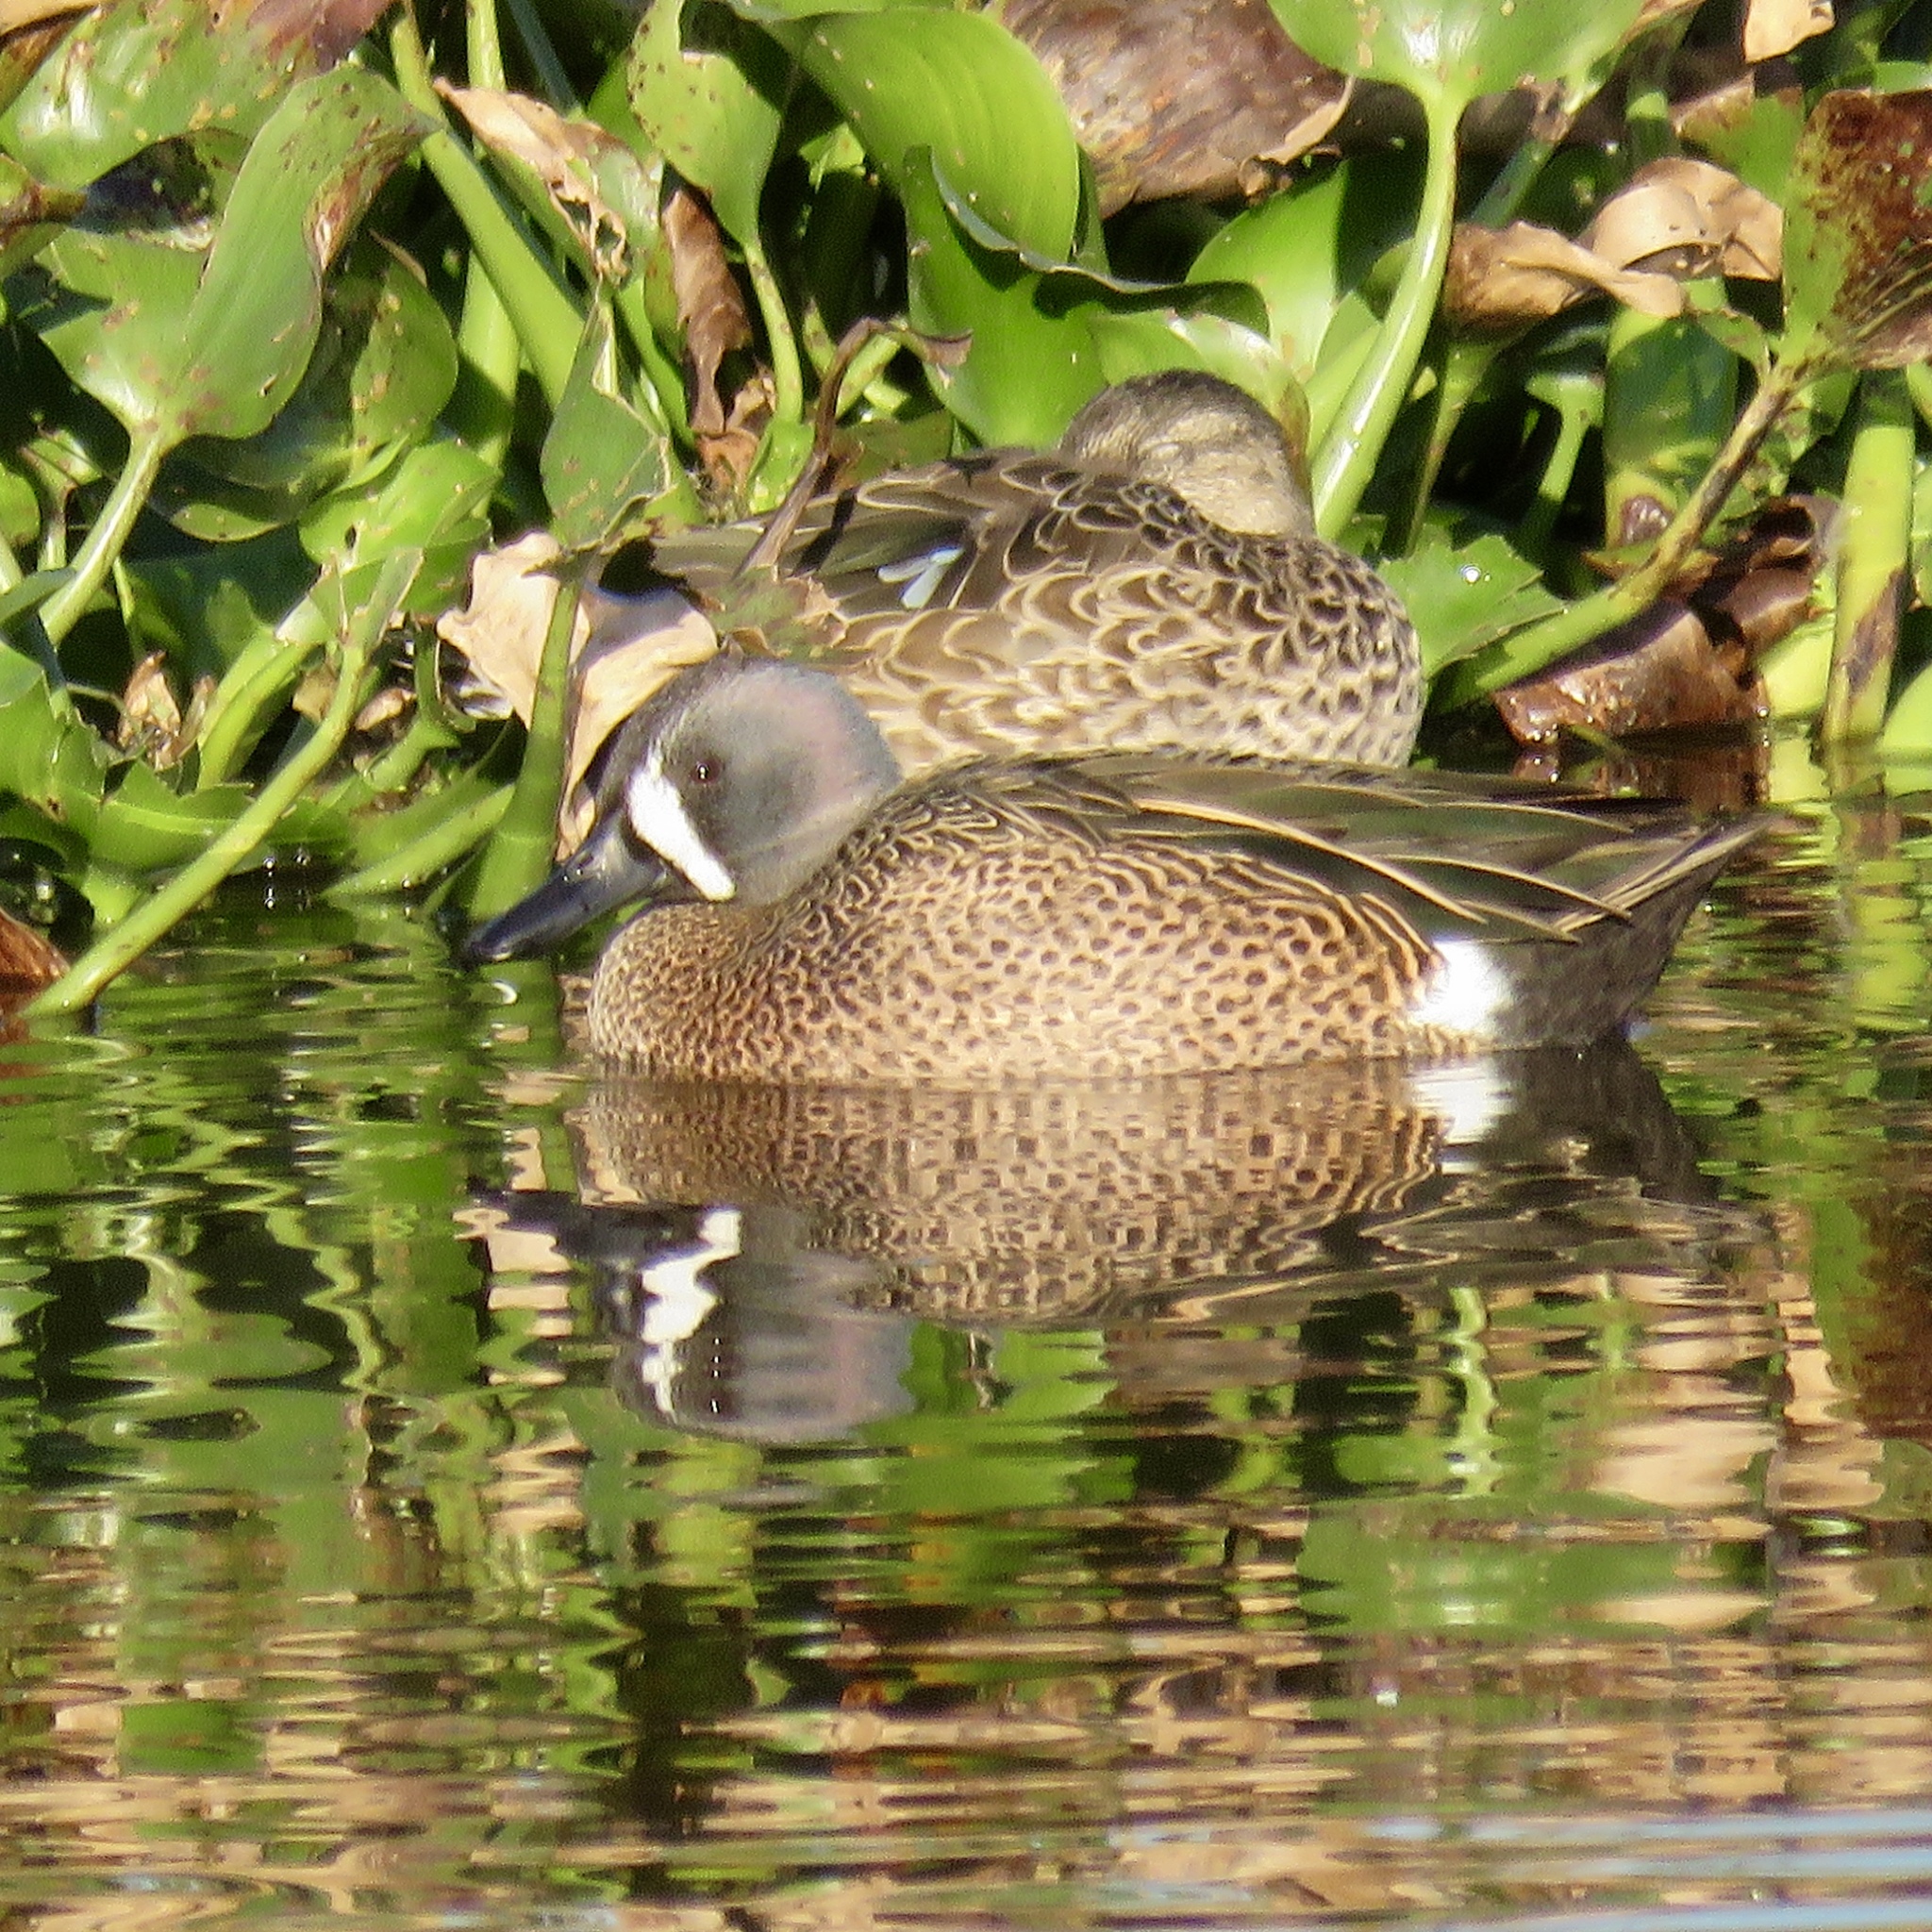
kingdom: Animalia
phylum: Chordata
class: Aves
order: Anseriformes
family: Anatidae
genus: Spatula
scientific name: Spatula discors
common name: Blue-winged teal
